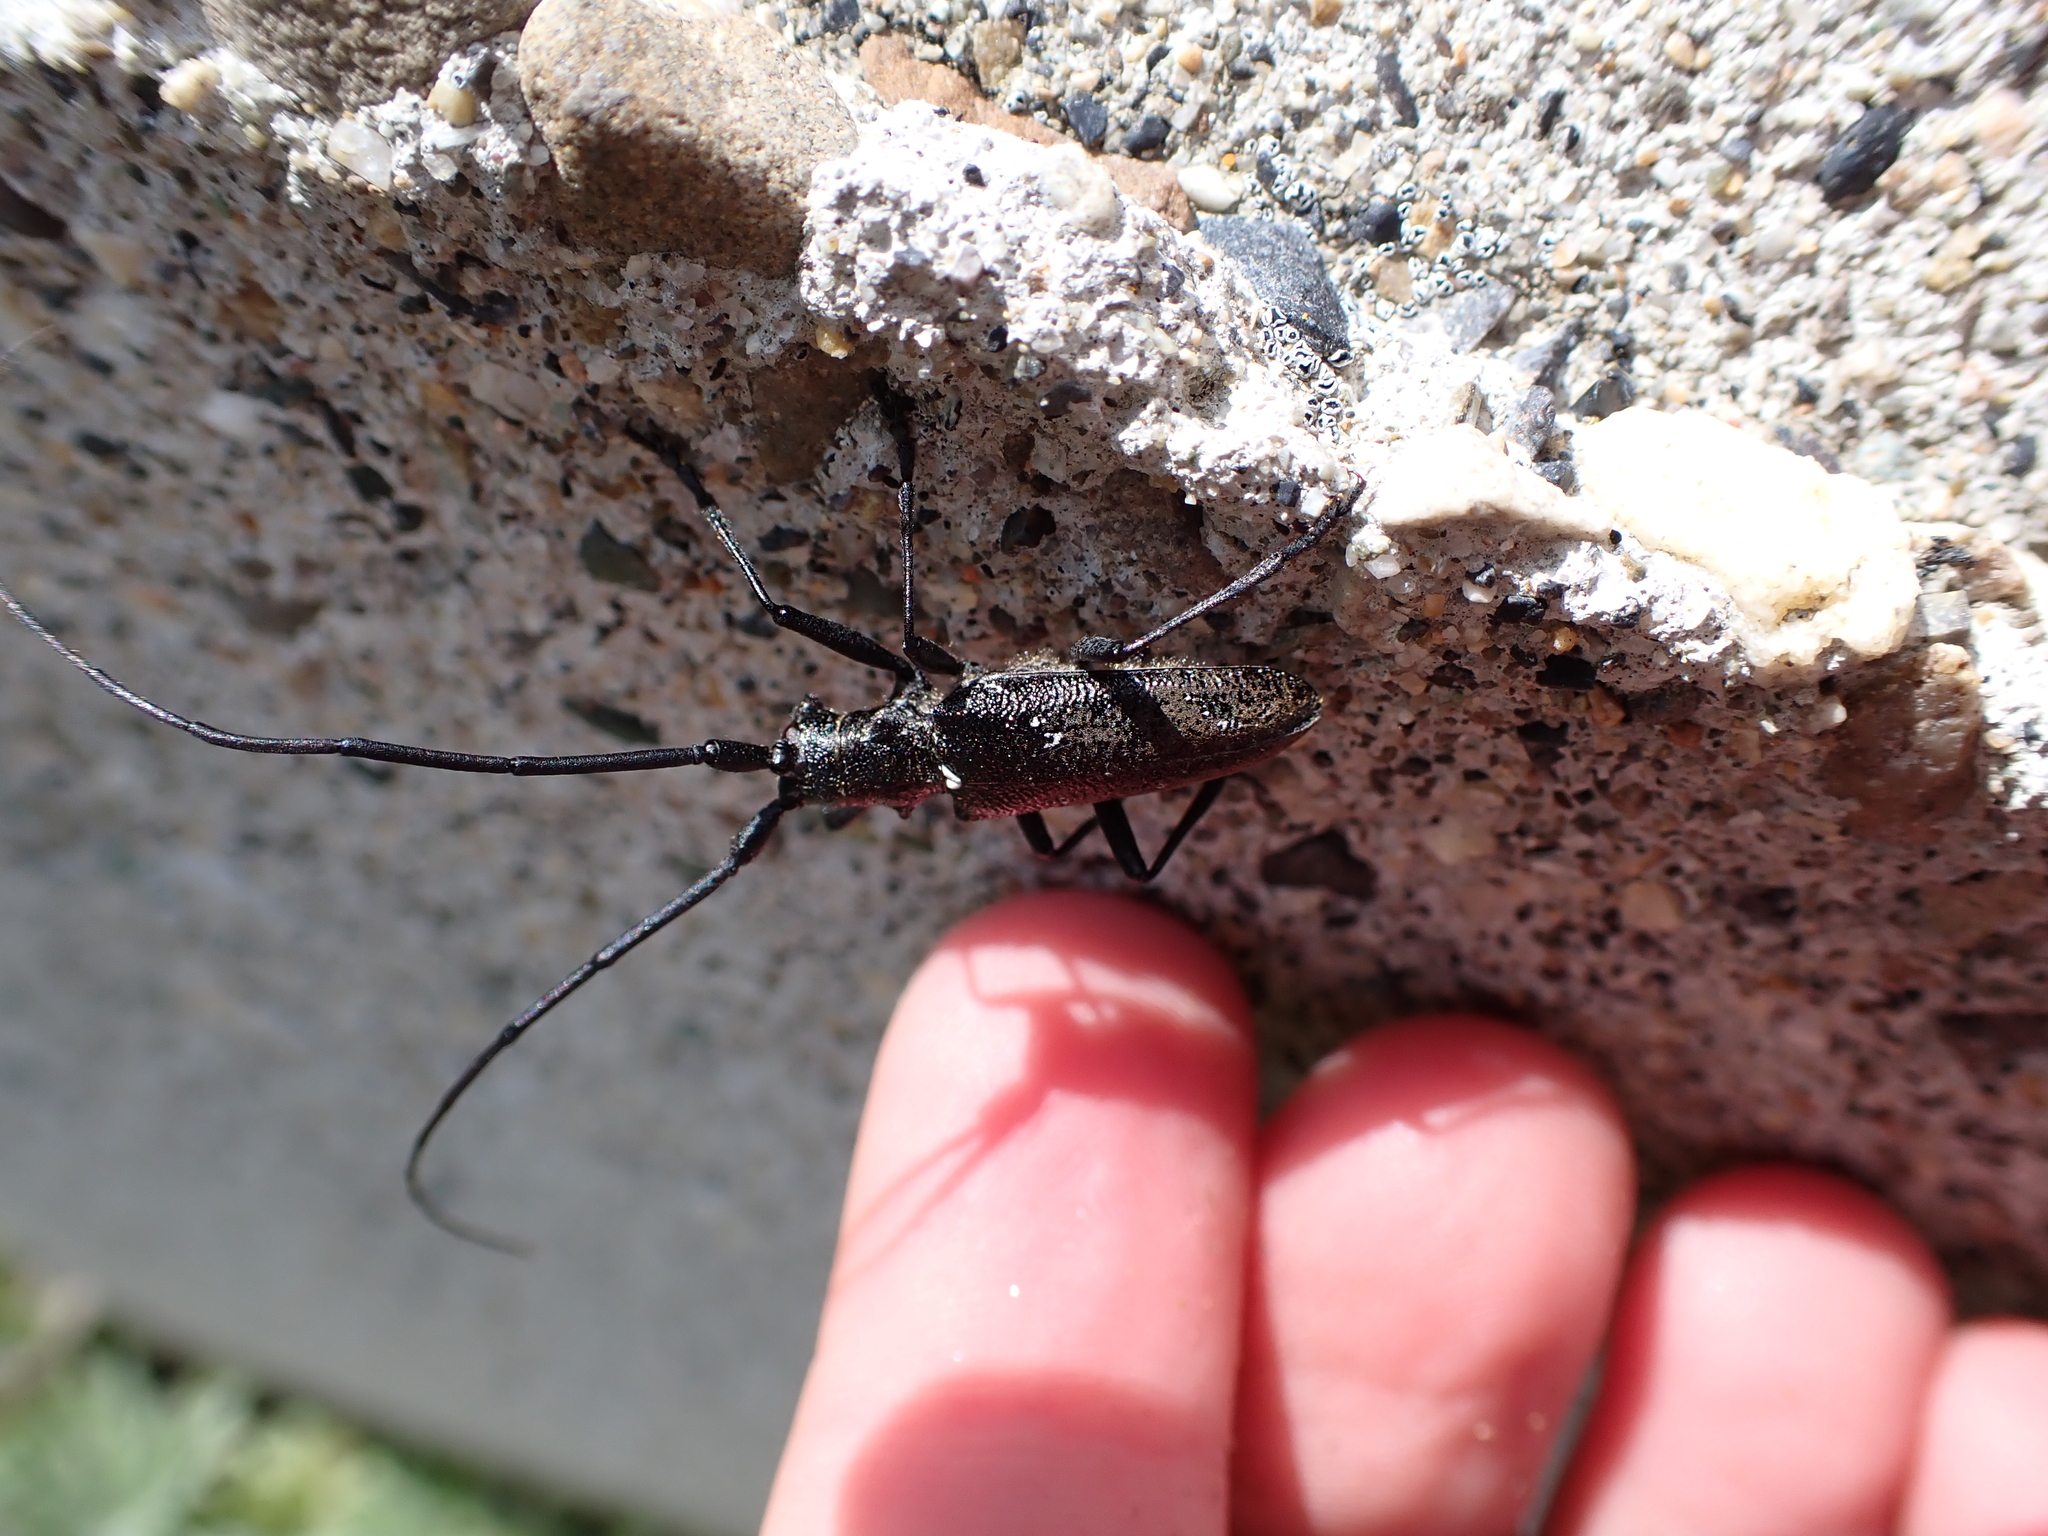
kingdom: Animalia
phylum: Arthropoda
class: Insecta
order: Coleoptera
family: Cerambycidae
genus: Monochamus
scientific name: Monochamus scutellatus
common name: White-spotted sawyer beetle
